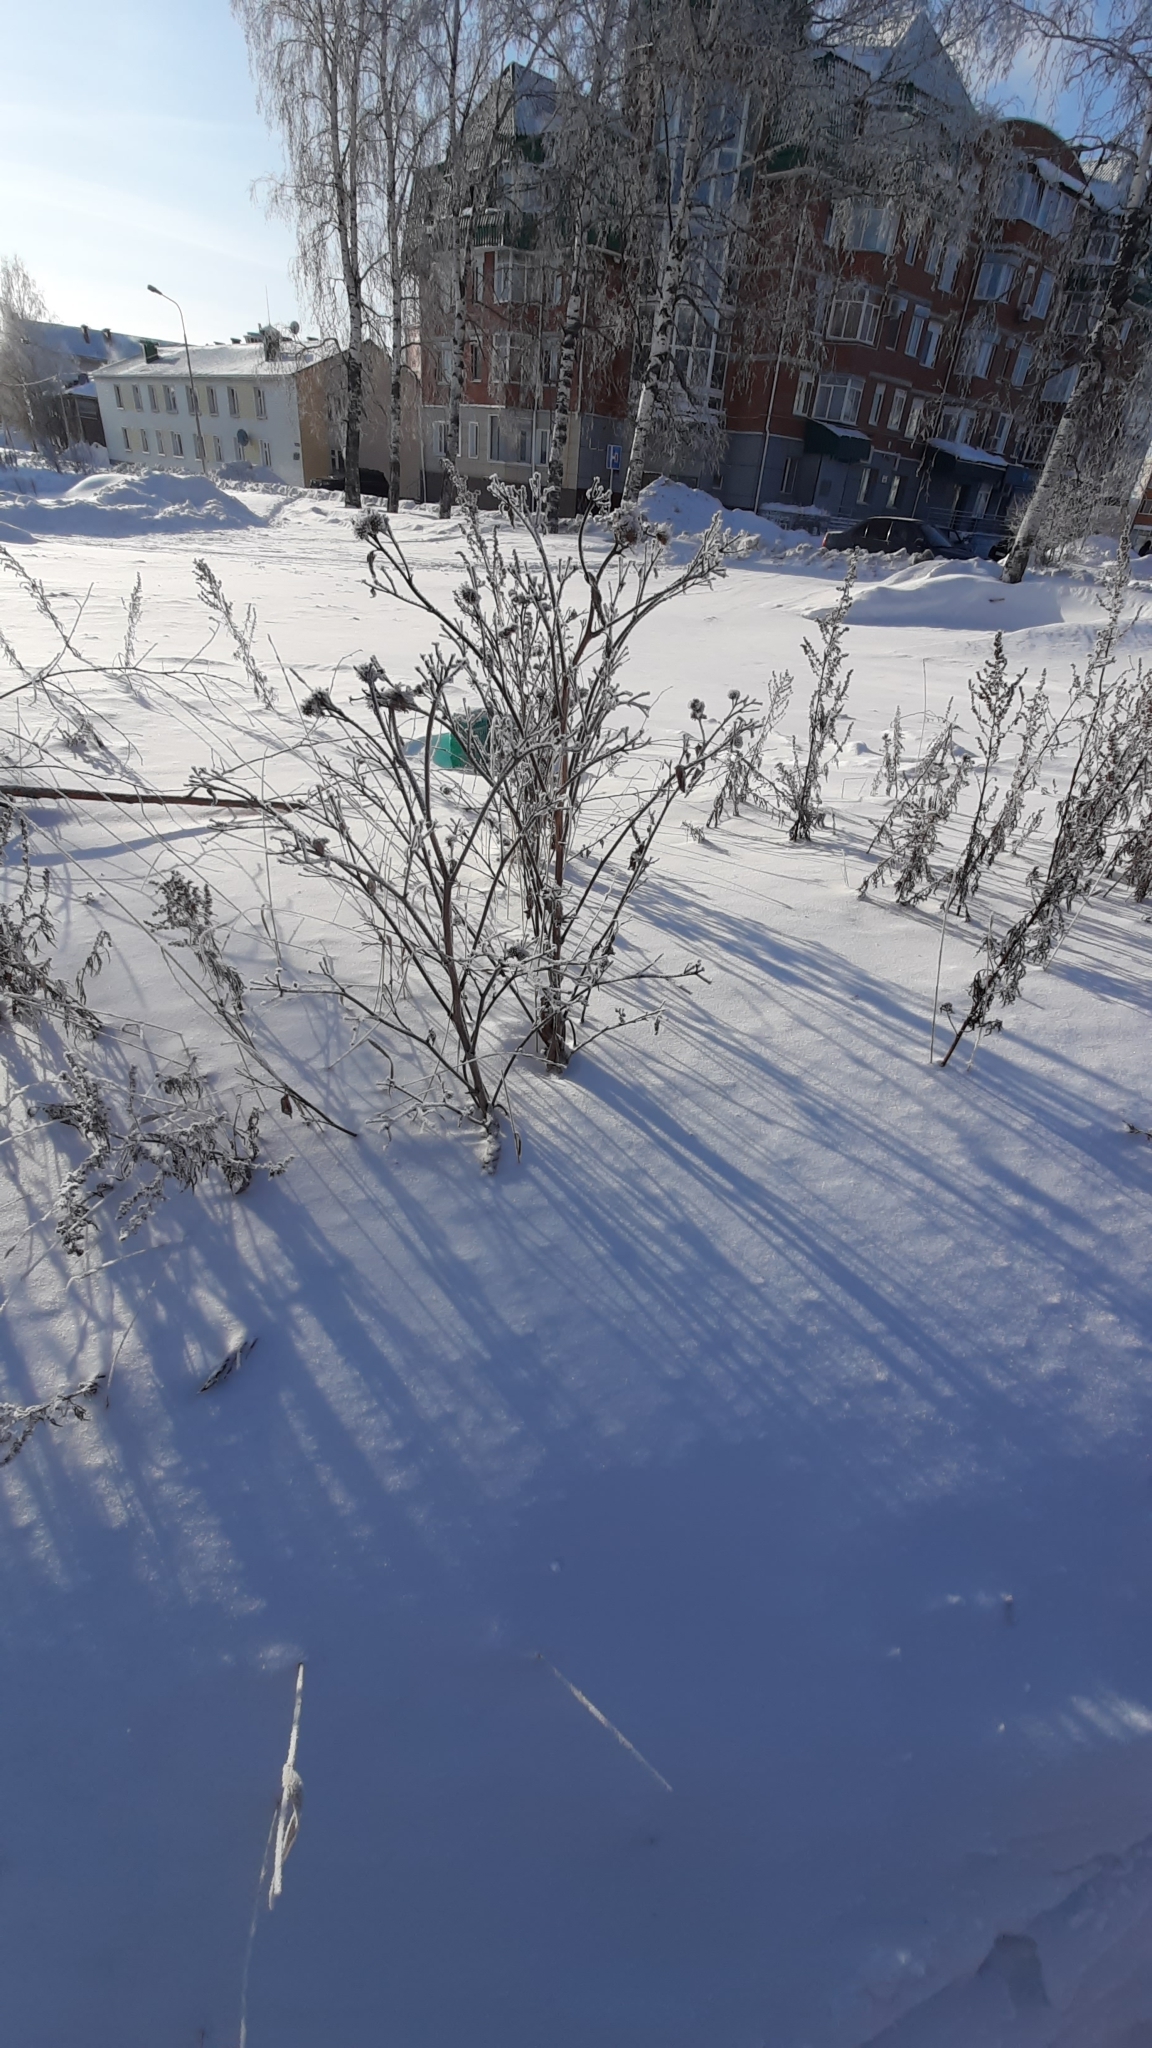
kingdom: Plantae
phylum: Tracheophyta
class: Magnoliopsida
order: Asterales
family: Asteraceae
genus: Arctium
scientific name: Arctium tomentosum
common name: Woolly burdock
